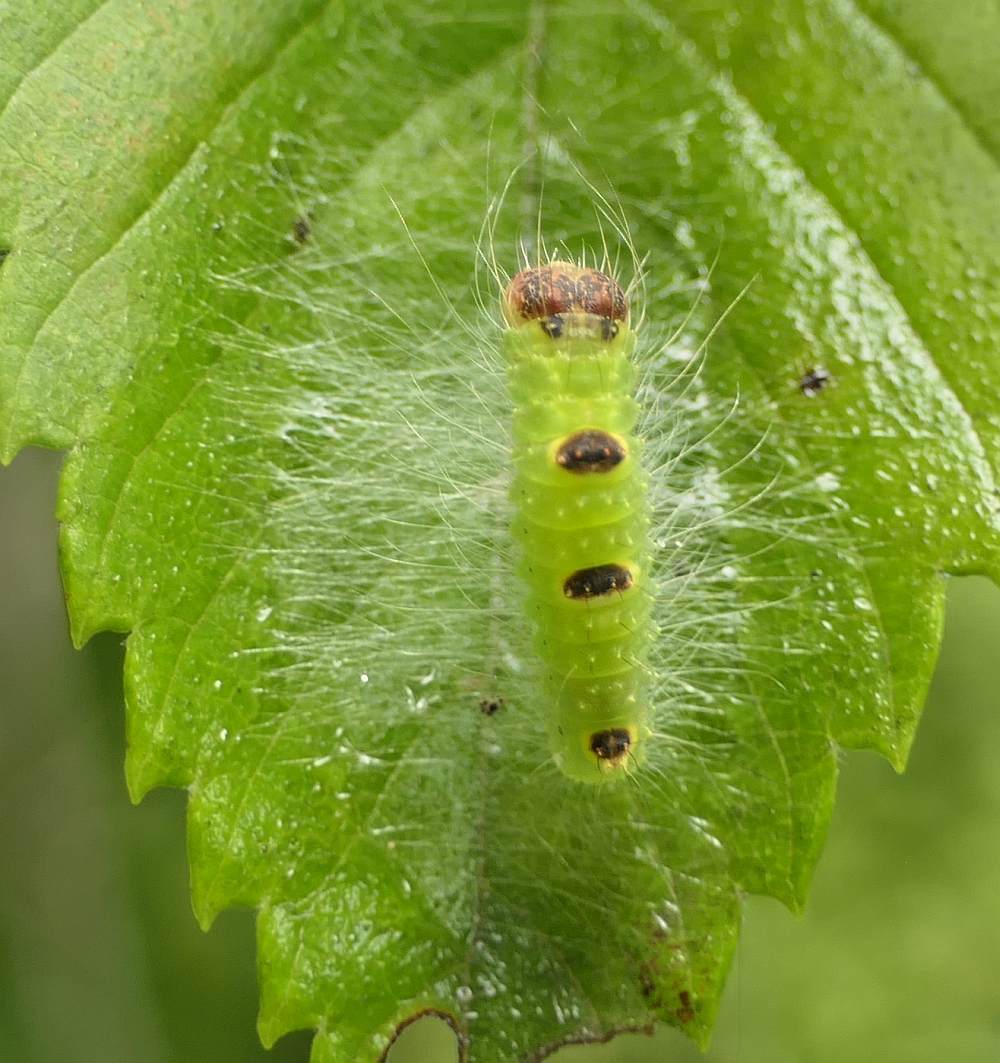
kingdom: Animalia
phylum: Arthropoda
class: Insecta
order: Lepidoptera
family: Noctuidae
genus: Acronicta
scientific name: Acronicta morula
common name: Ochre dagger
